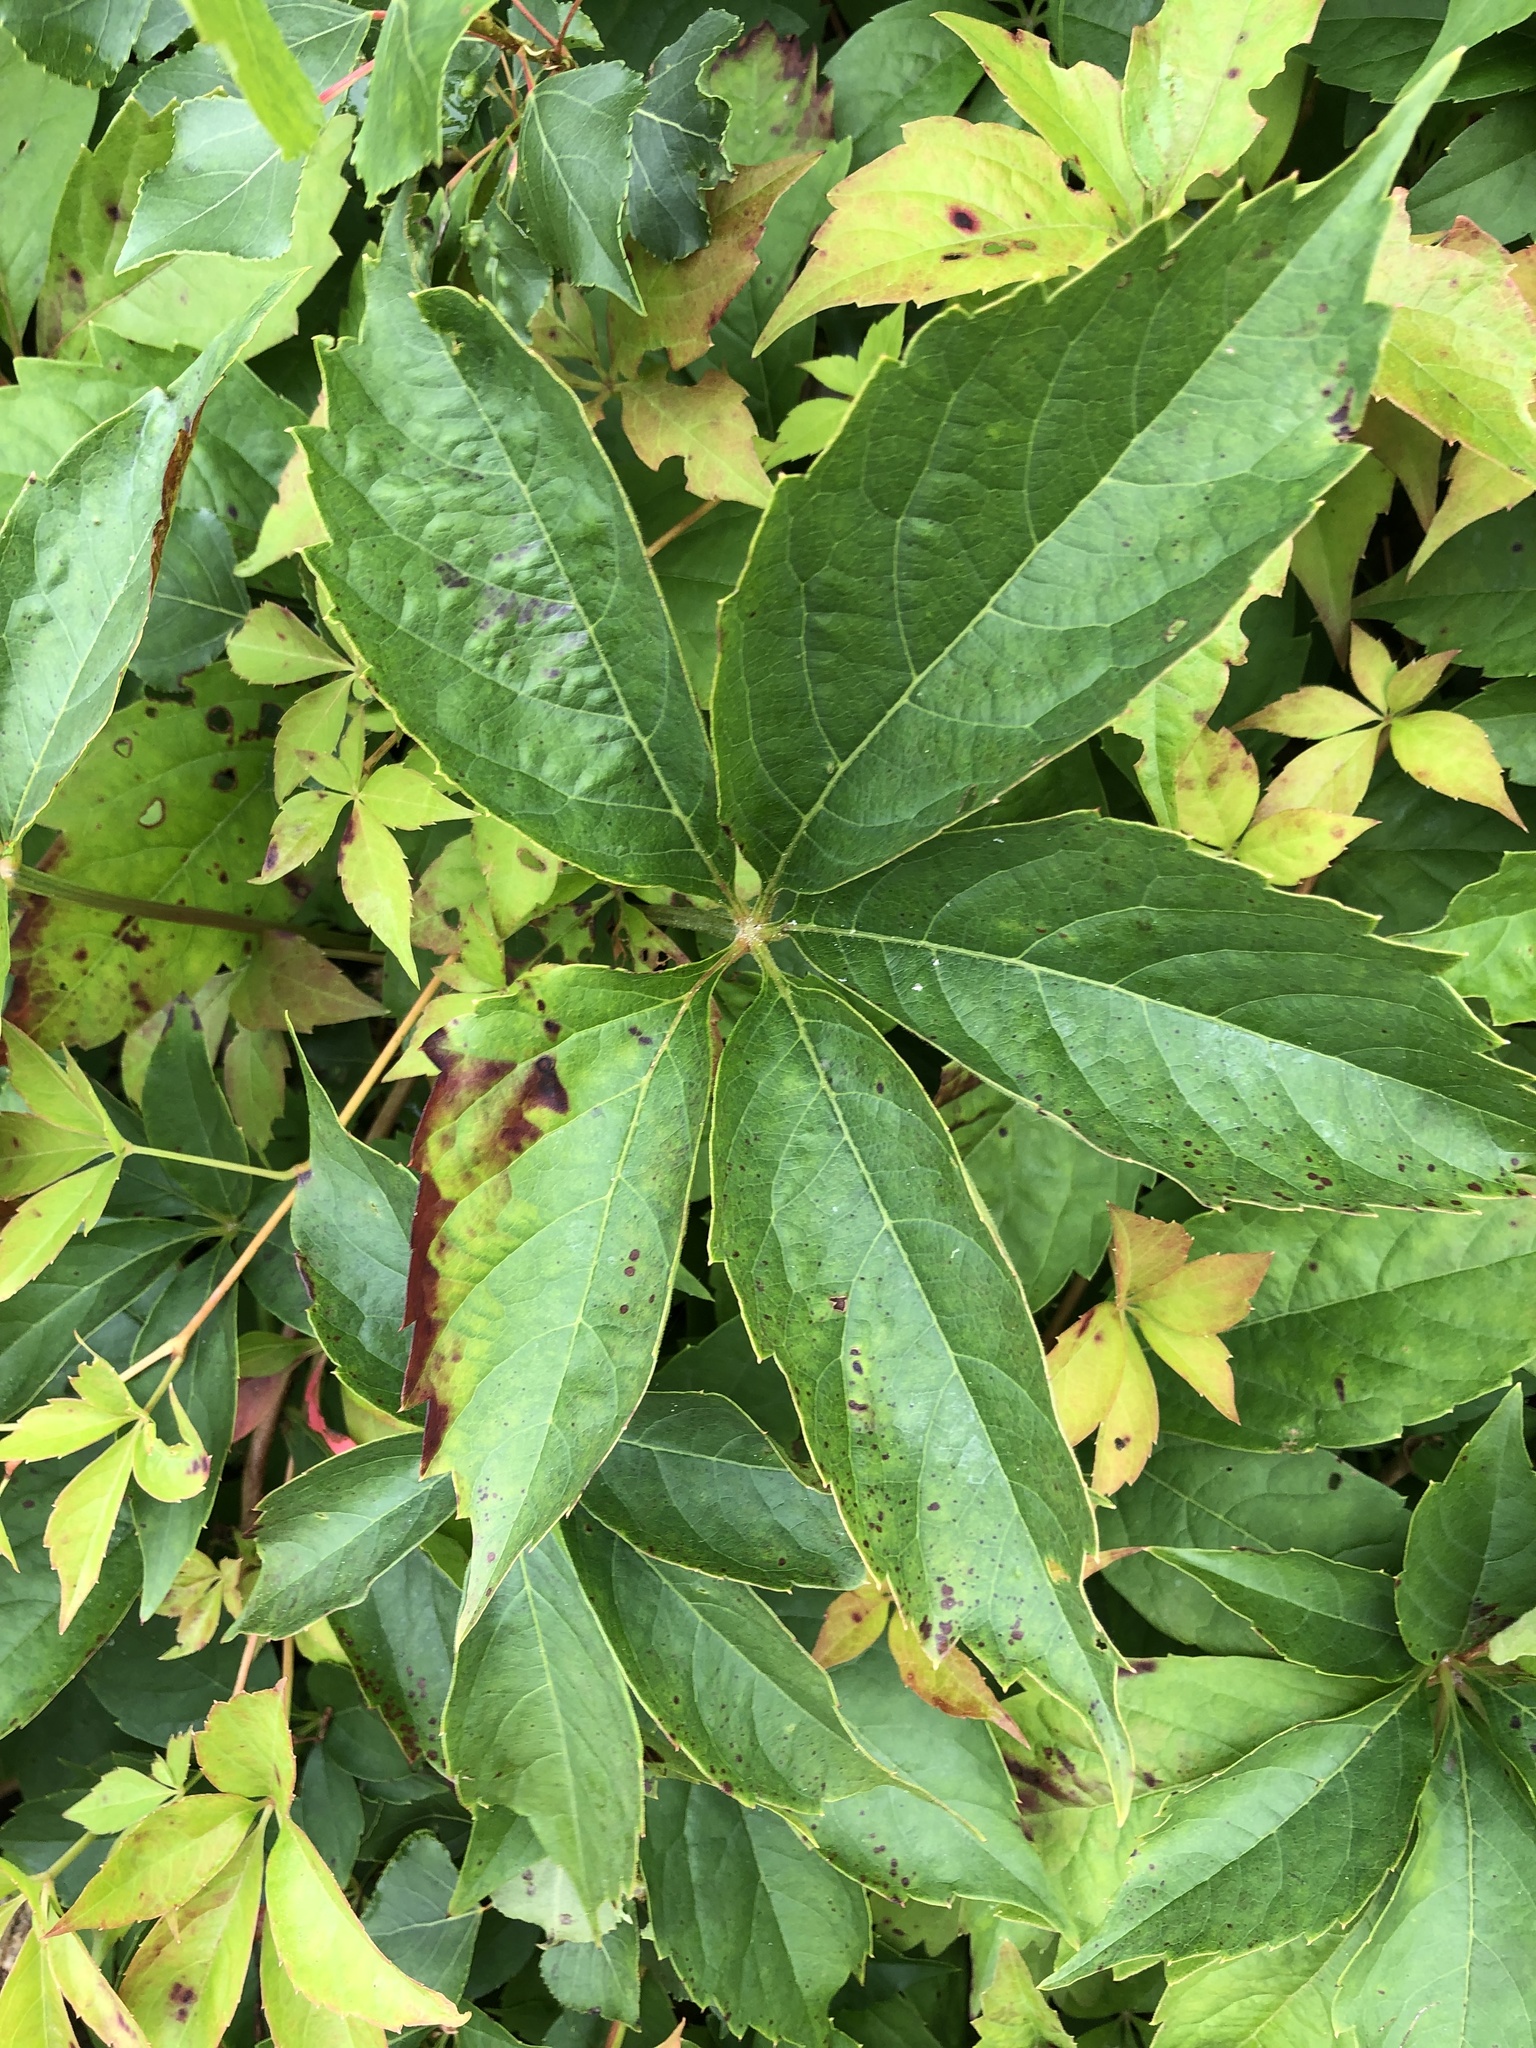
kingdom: Plantae
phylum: Tracheophyta
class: Magnoliopsida
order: Vitales
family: Vitaceae
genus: Parthenocissus
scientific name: Parthenocissus quinquefolia
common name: Virginia-creeper
